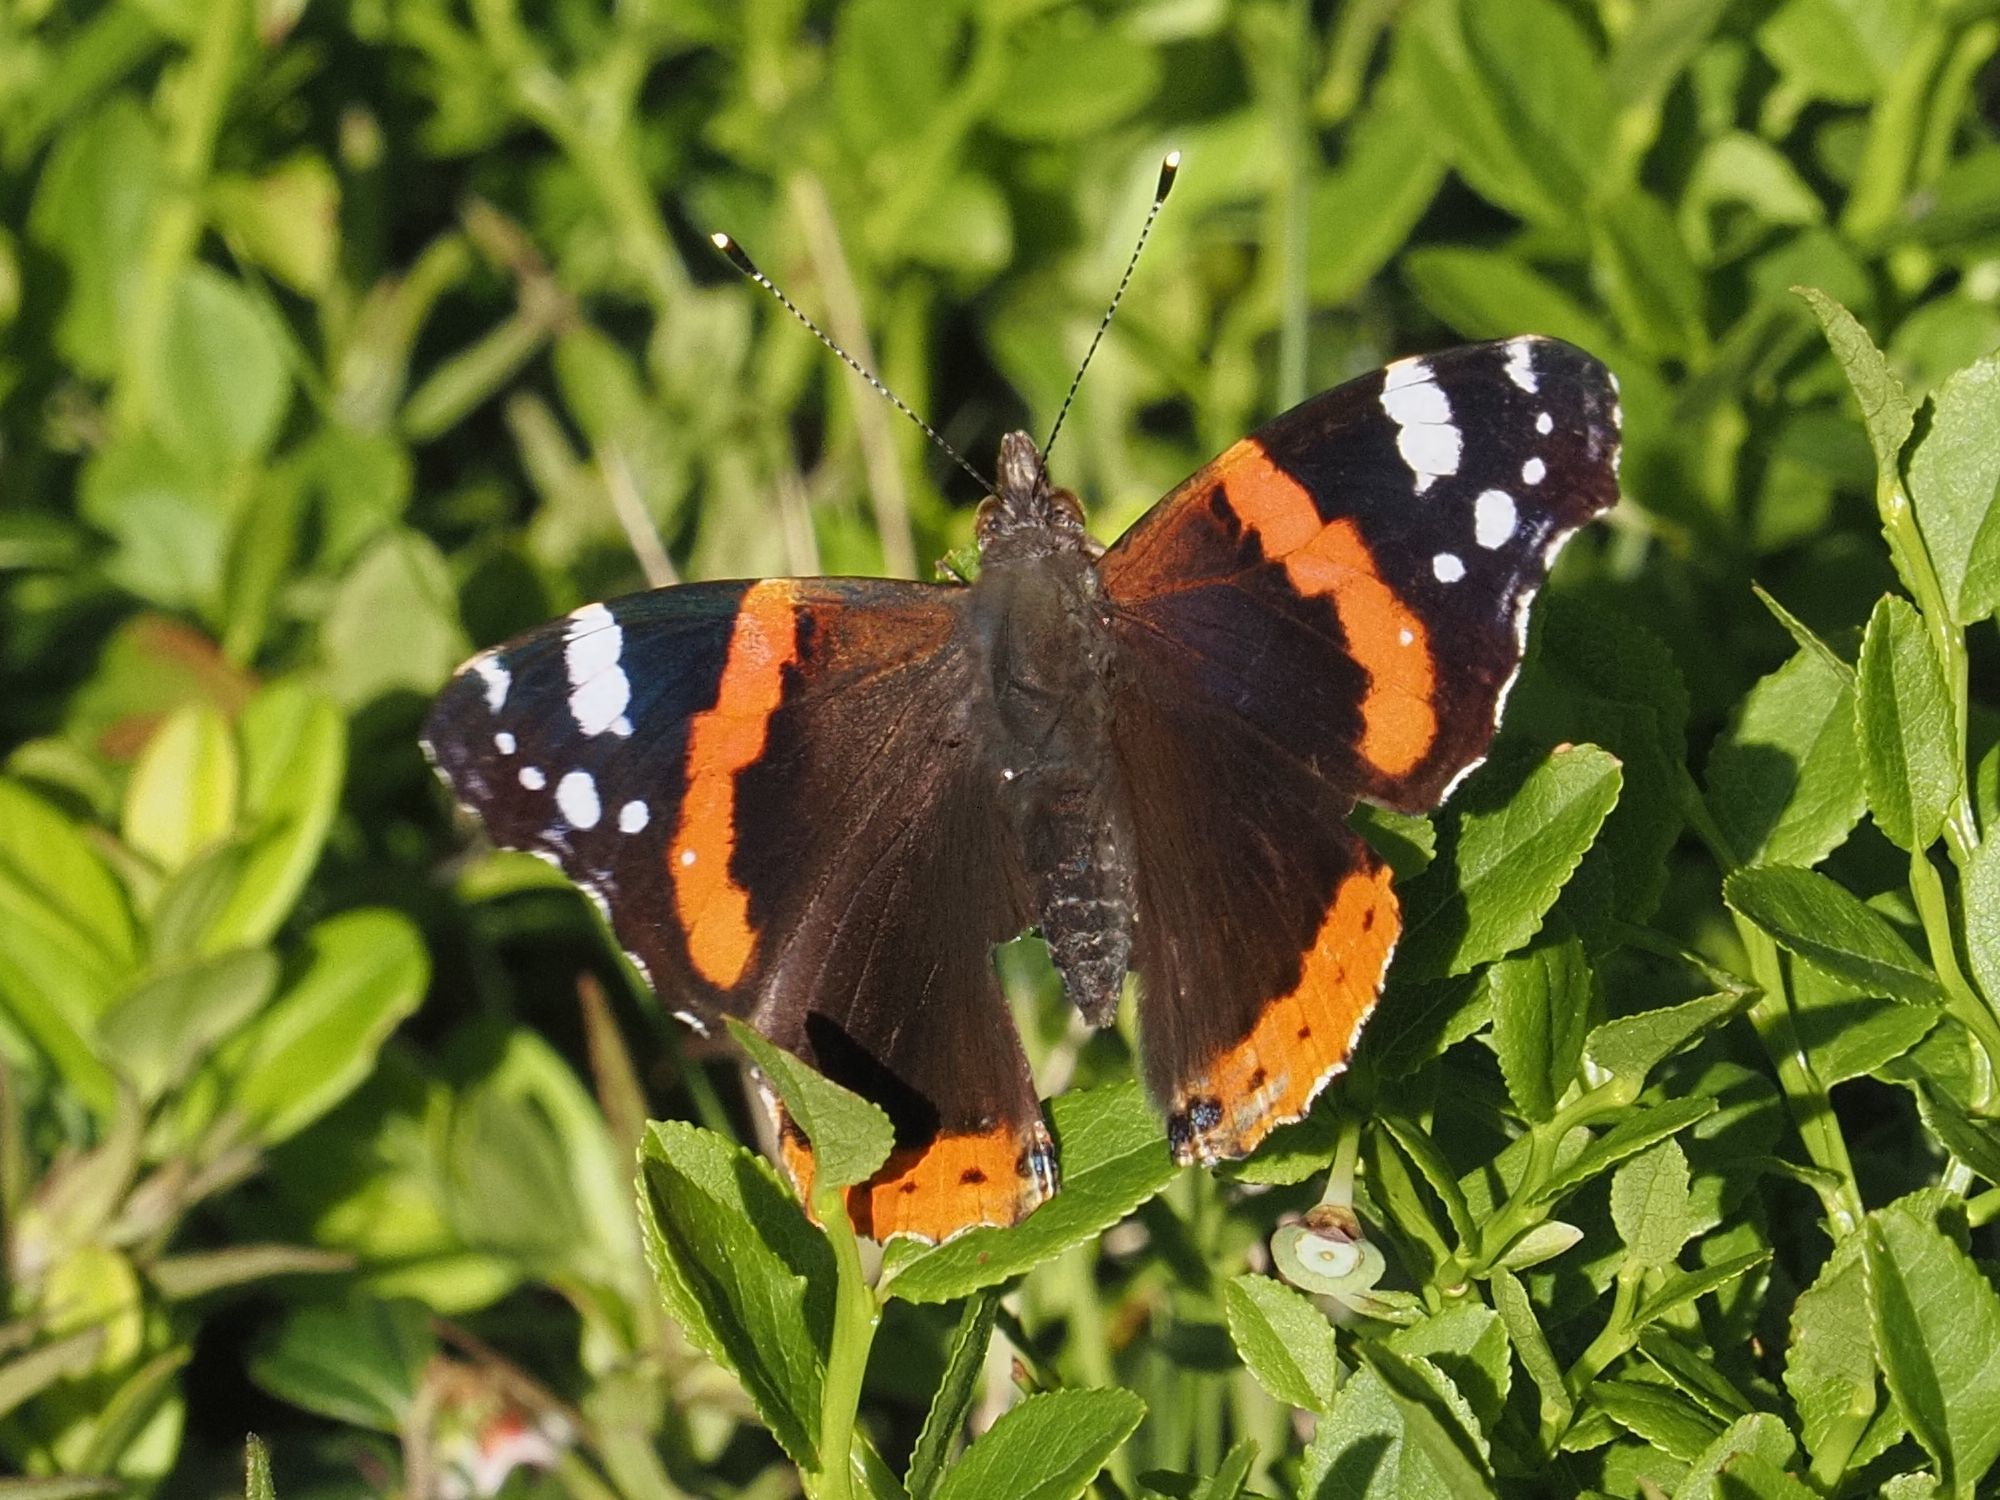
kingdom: Animalia
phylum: Arthropoda
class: Insecta
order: Lepidoptera
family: Nymphalidae
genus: Vanessa
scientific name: Vanessa atalanta
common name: Red admiral
